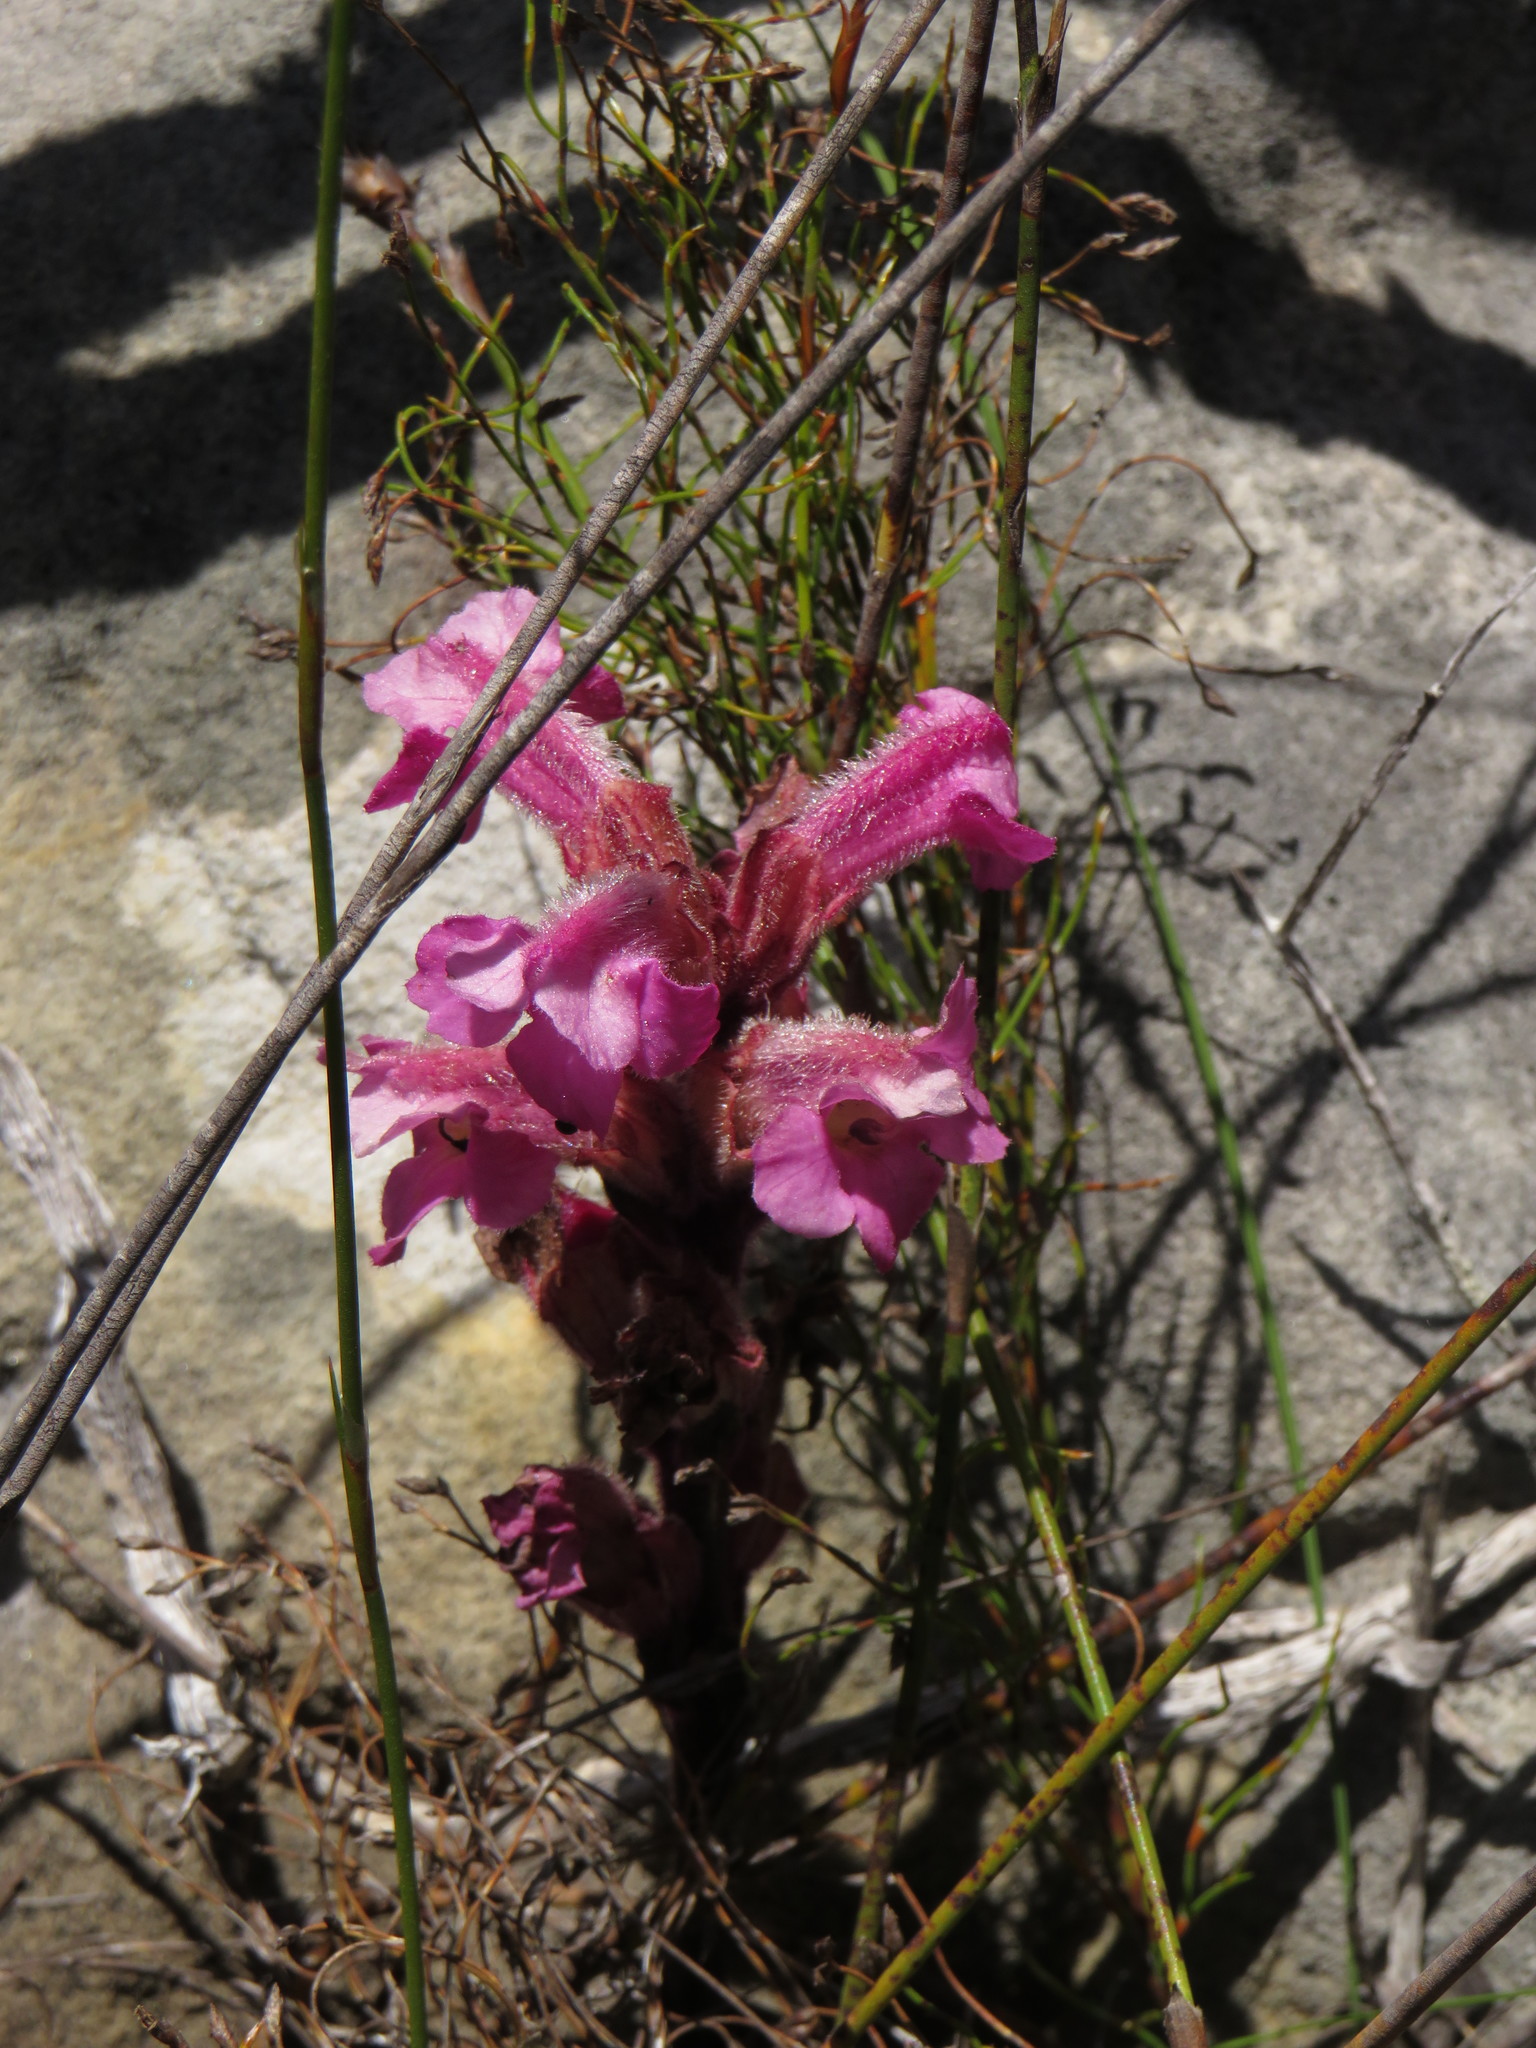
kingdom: Plantae
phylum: Tracheophyta
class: Magnoliopsida
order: Lamiales
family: Orobanchaceae
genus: Harveya
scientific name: Harveya pauciflora
